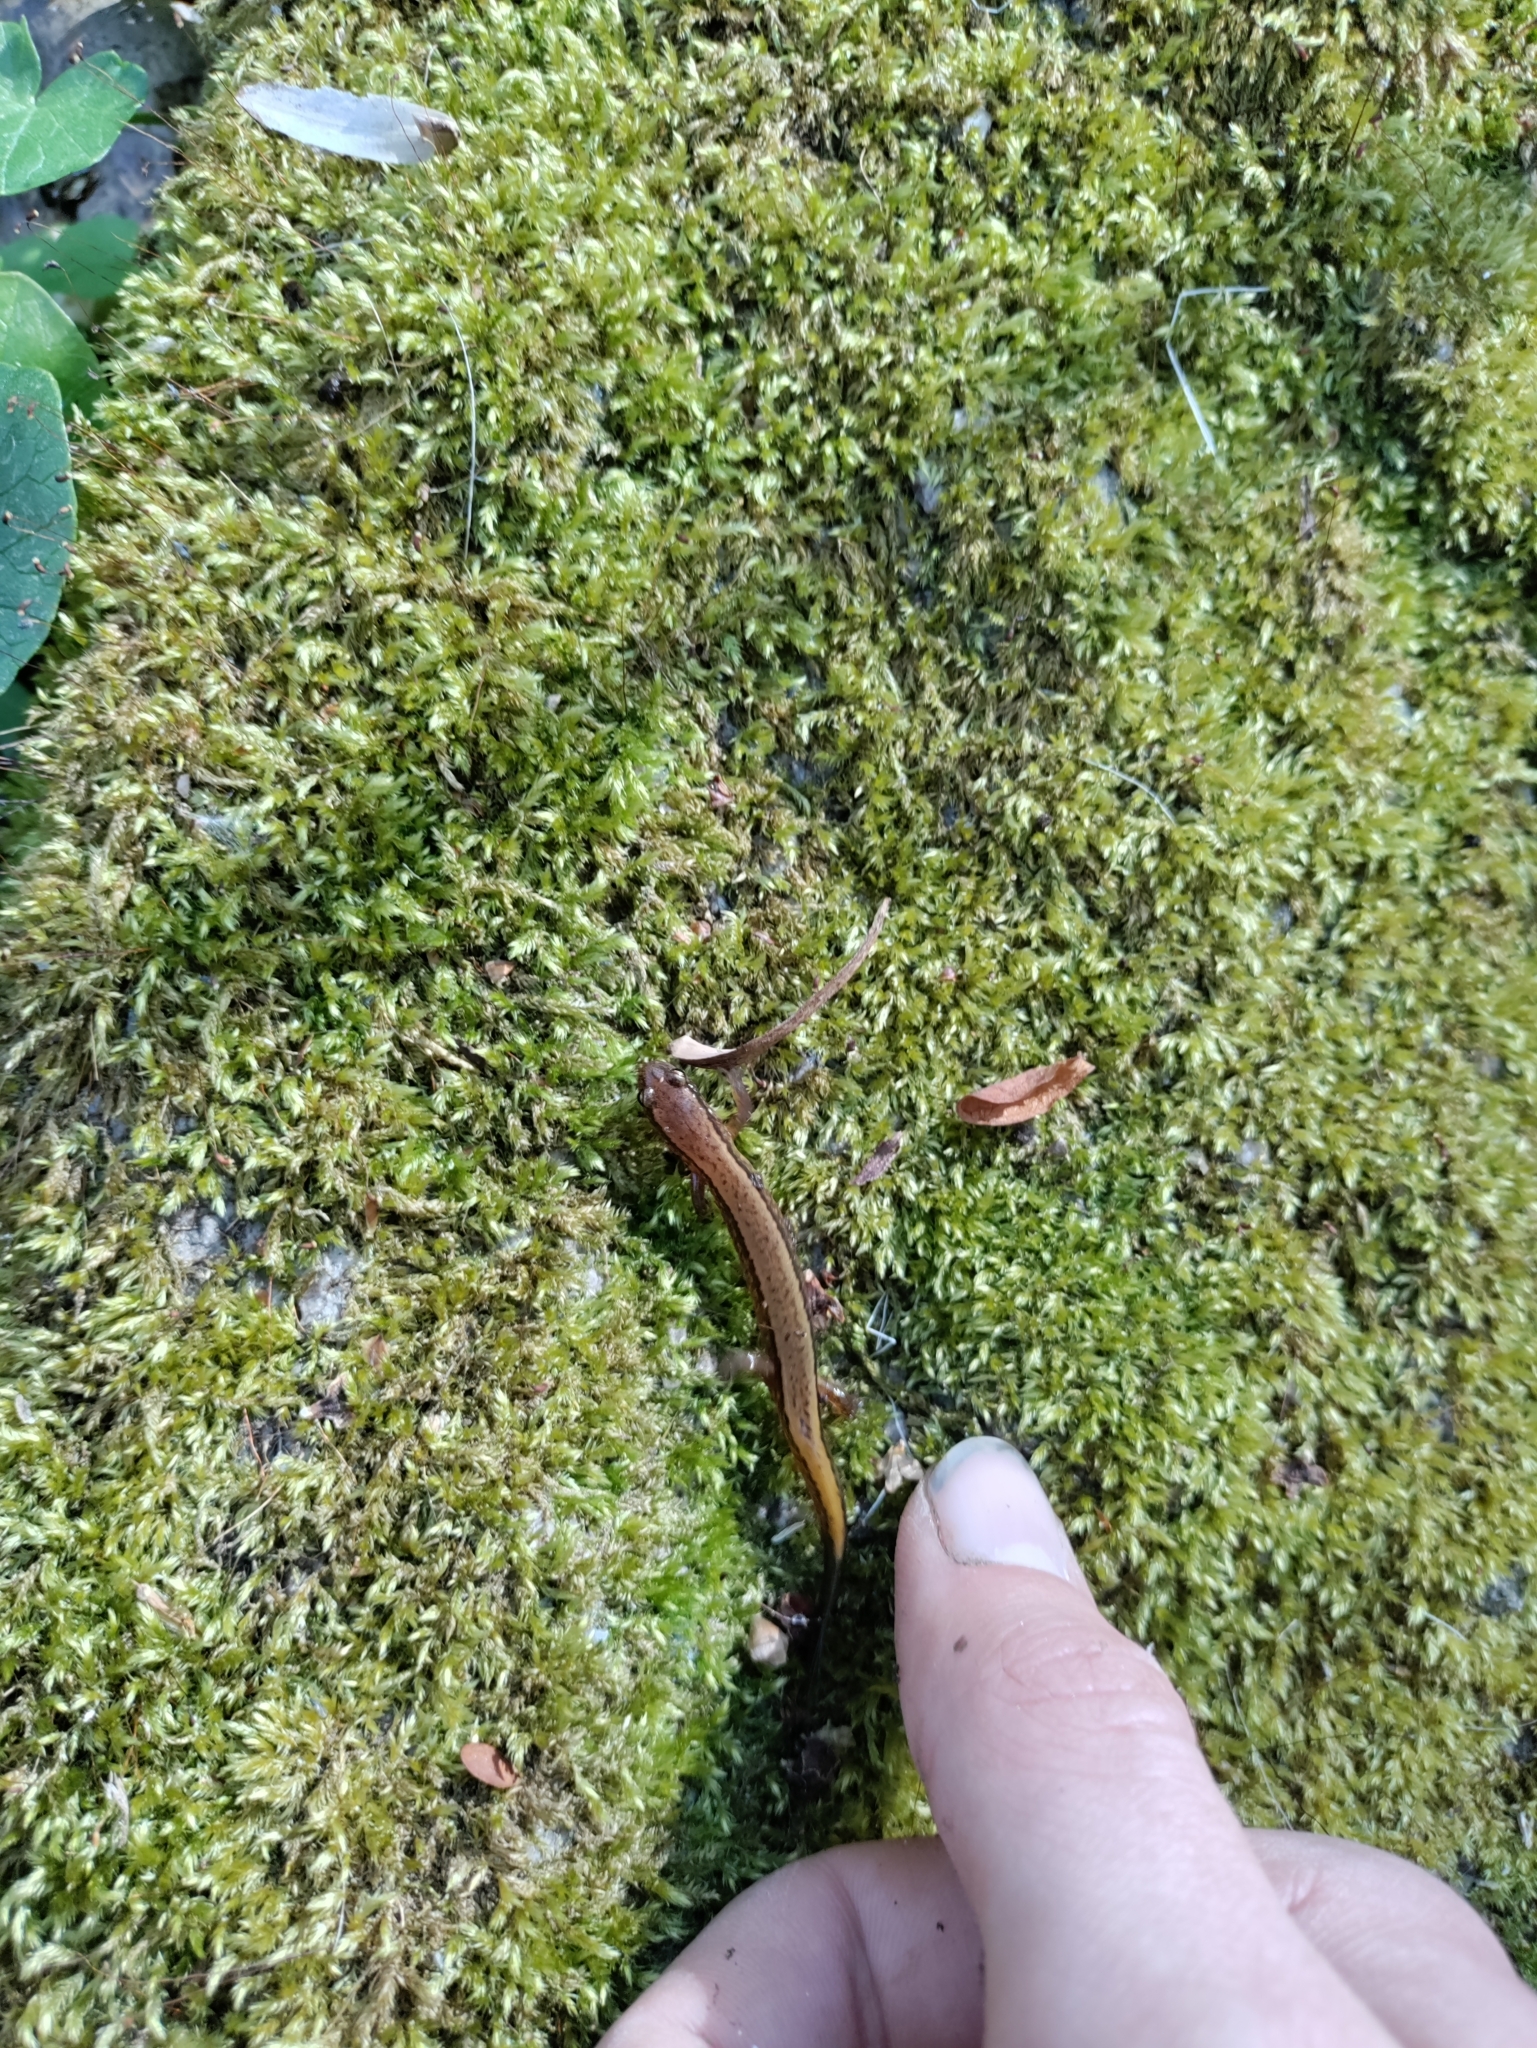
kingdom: Animalia
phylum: Chordata
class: Amphibia
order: Caudata
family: Plethodontidae
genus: Eurycea
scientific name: Eurycea bislineata
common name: Northern two-lined salamander
